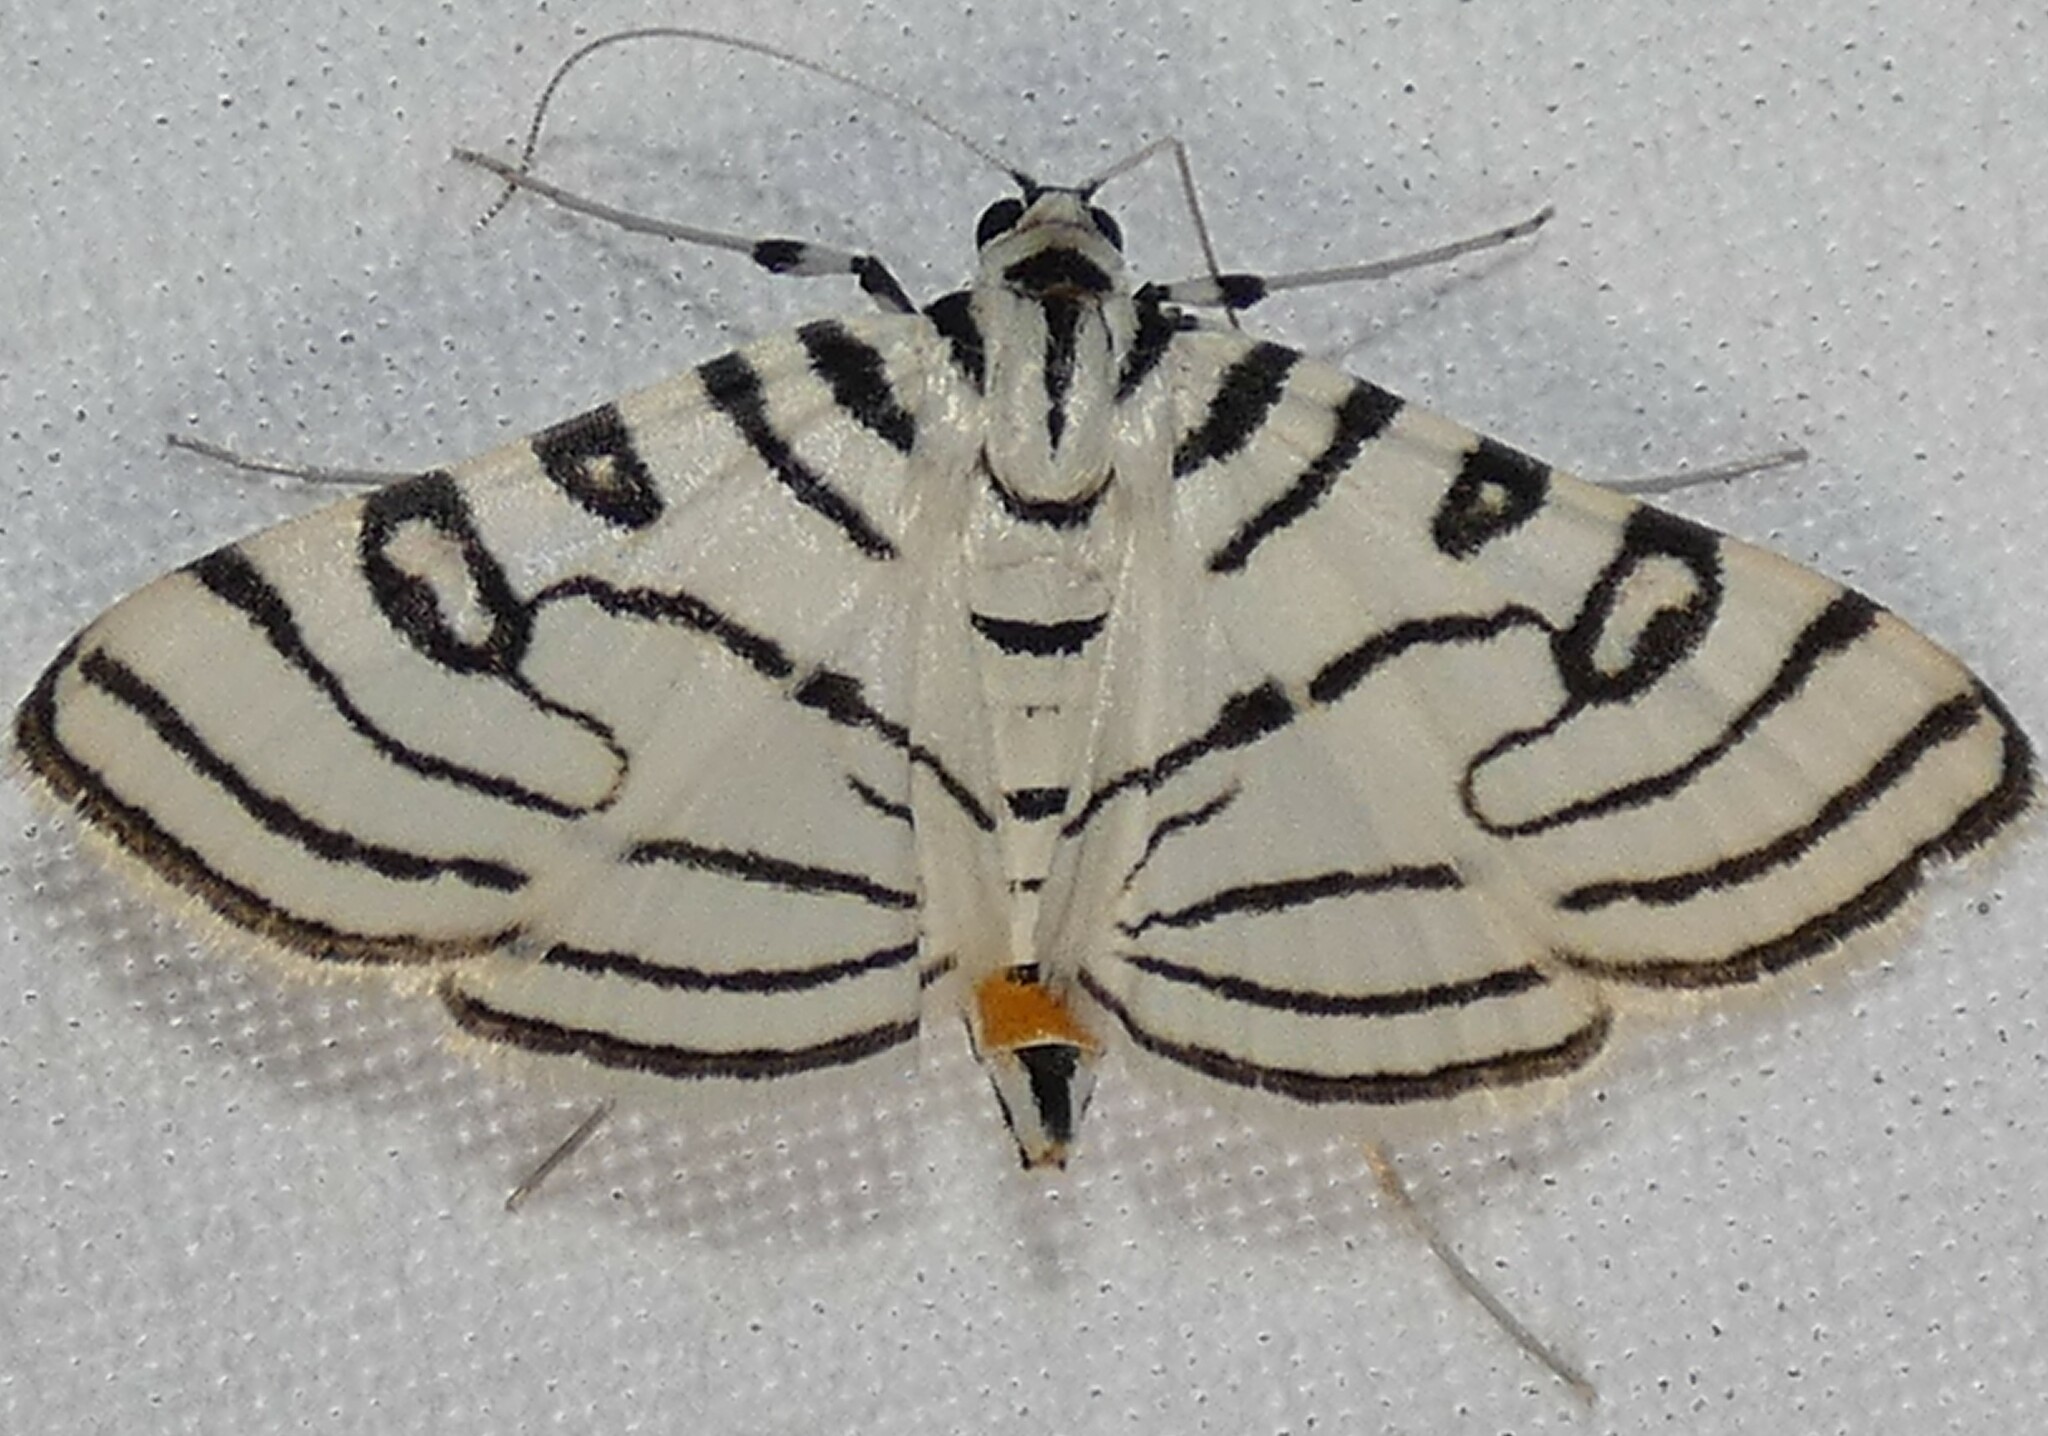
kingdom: Animalia
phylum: Arthropoda
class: Insecta
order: Lepidoptera
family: Crambidae
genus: Conchylodes
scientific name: Conchylodes concinnalis
